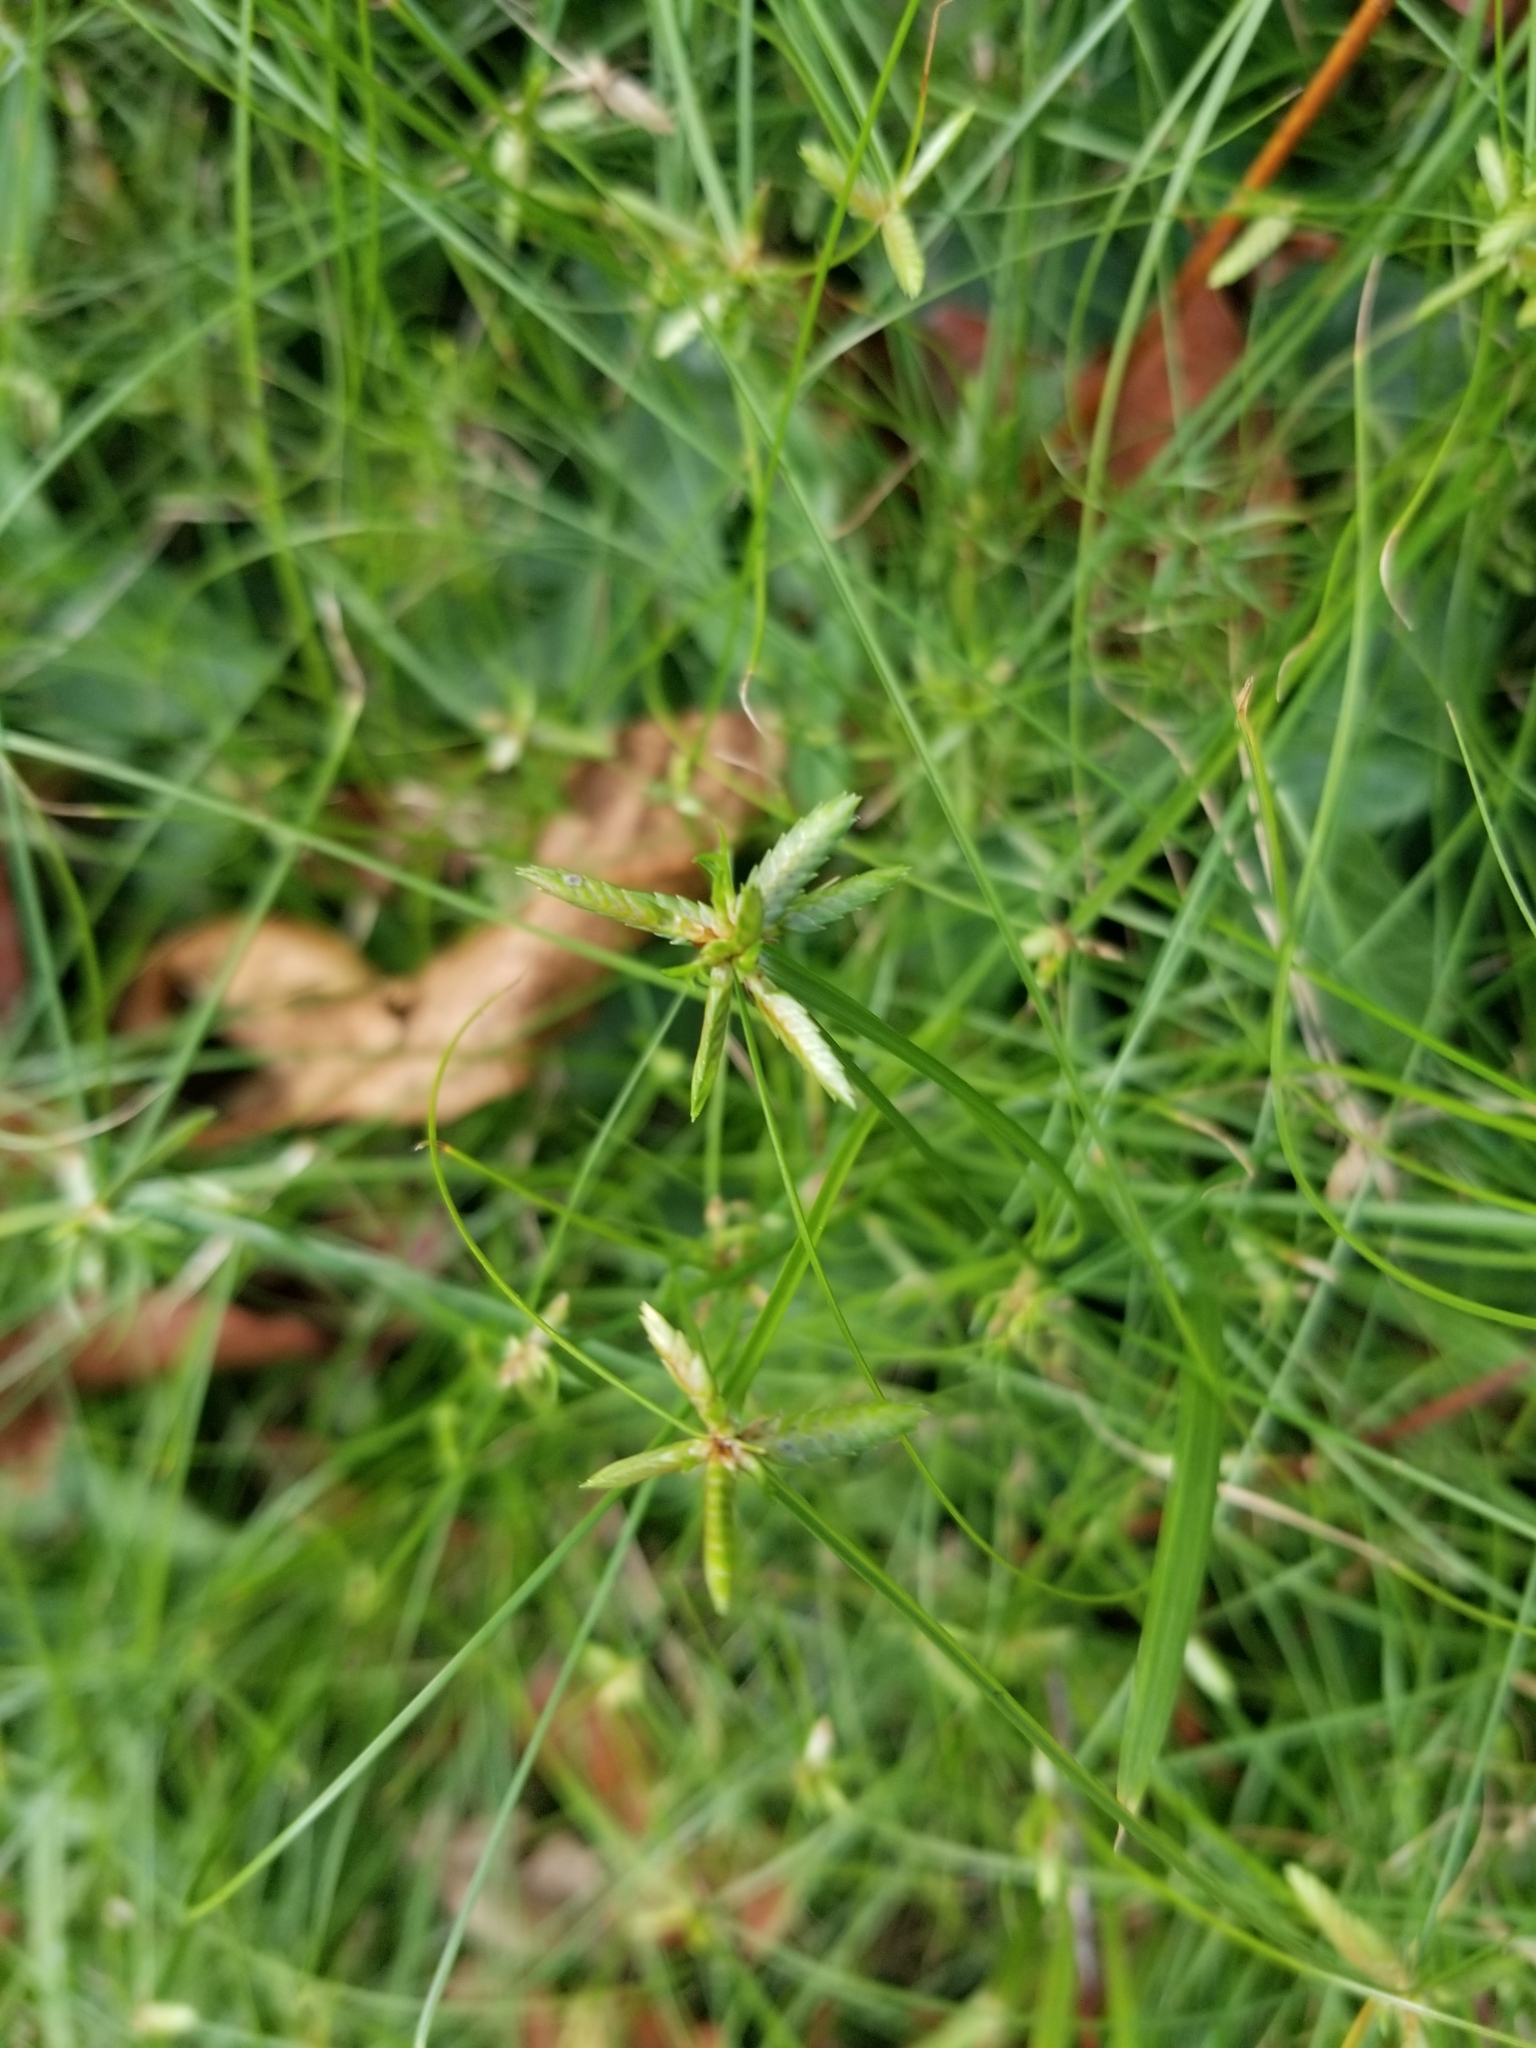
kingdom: Plantae
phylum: Tracheophyta
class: Liliopsida
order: Poales
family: Cyperaceae
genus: Cyperus
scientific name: Cyperus gracilis
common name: Slimjim flatsedge
